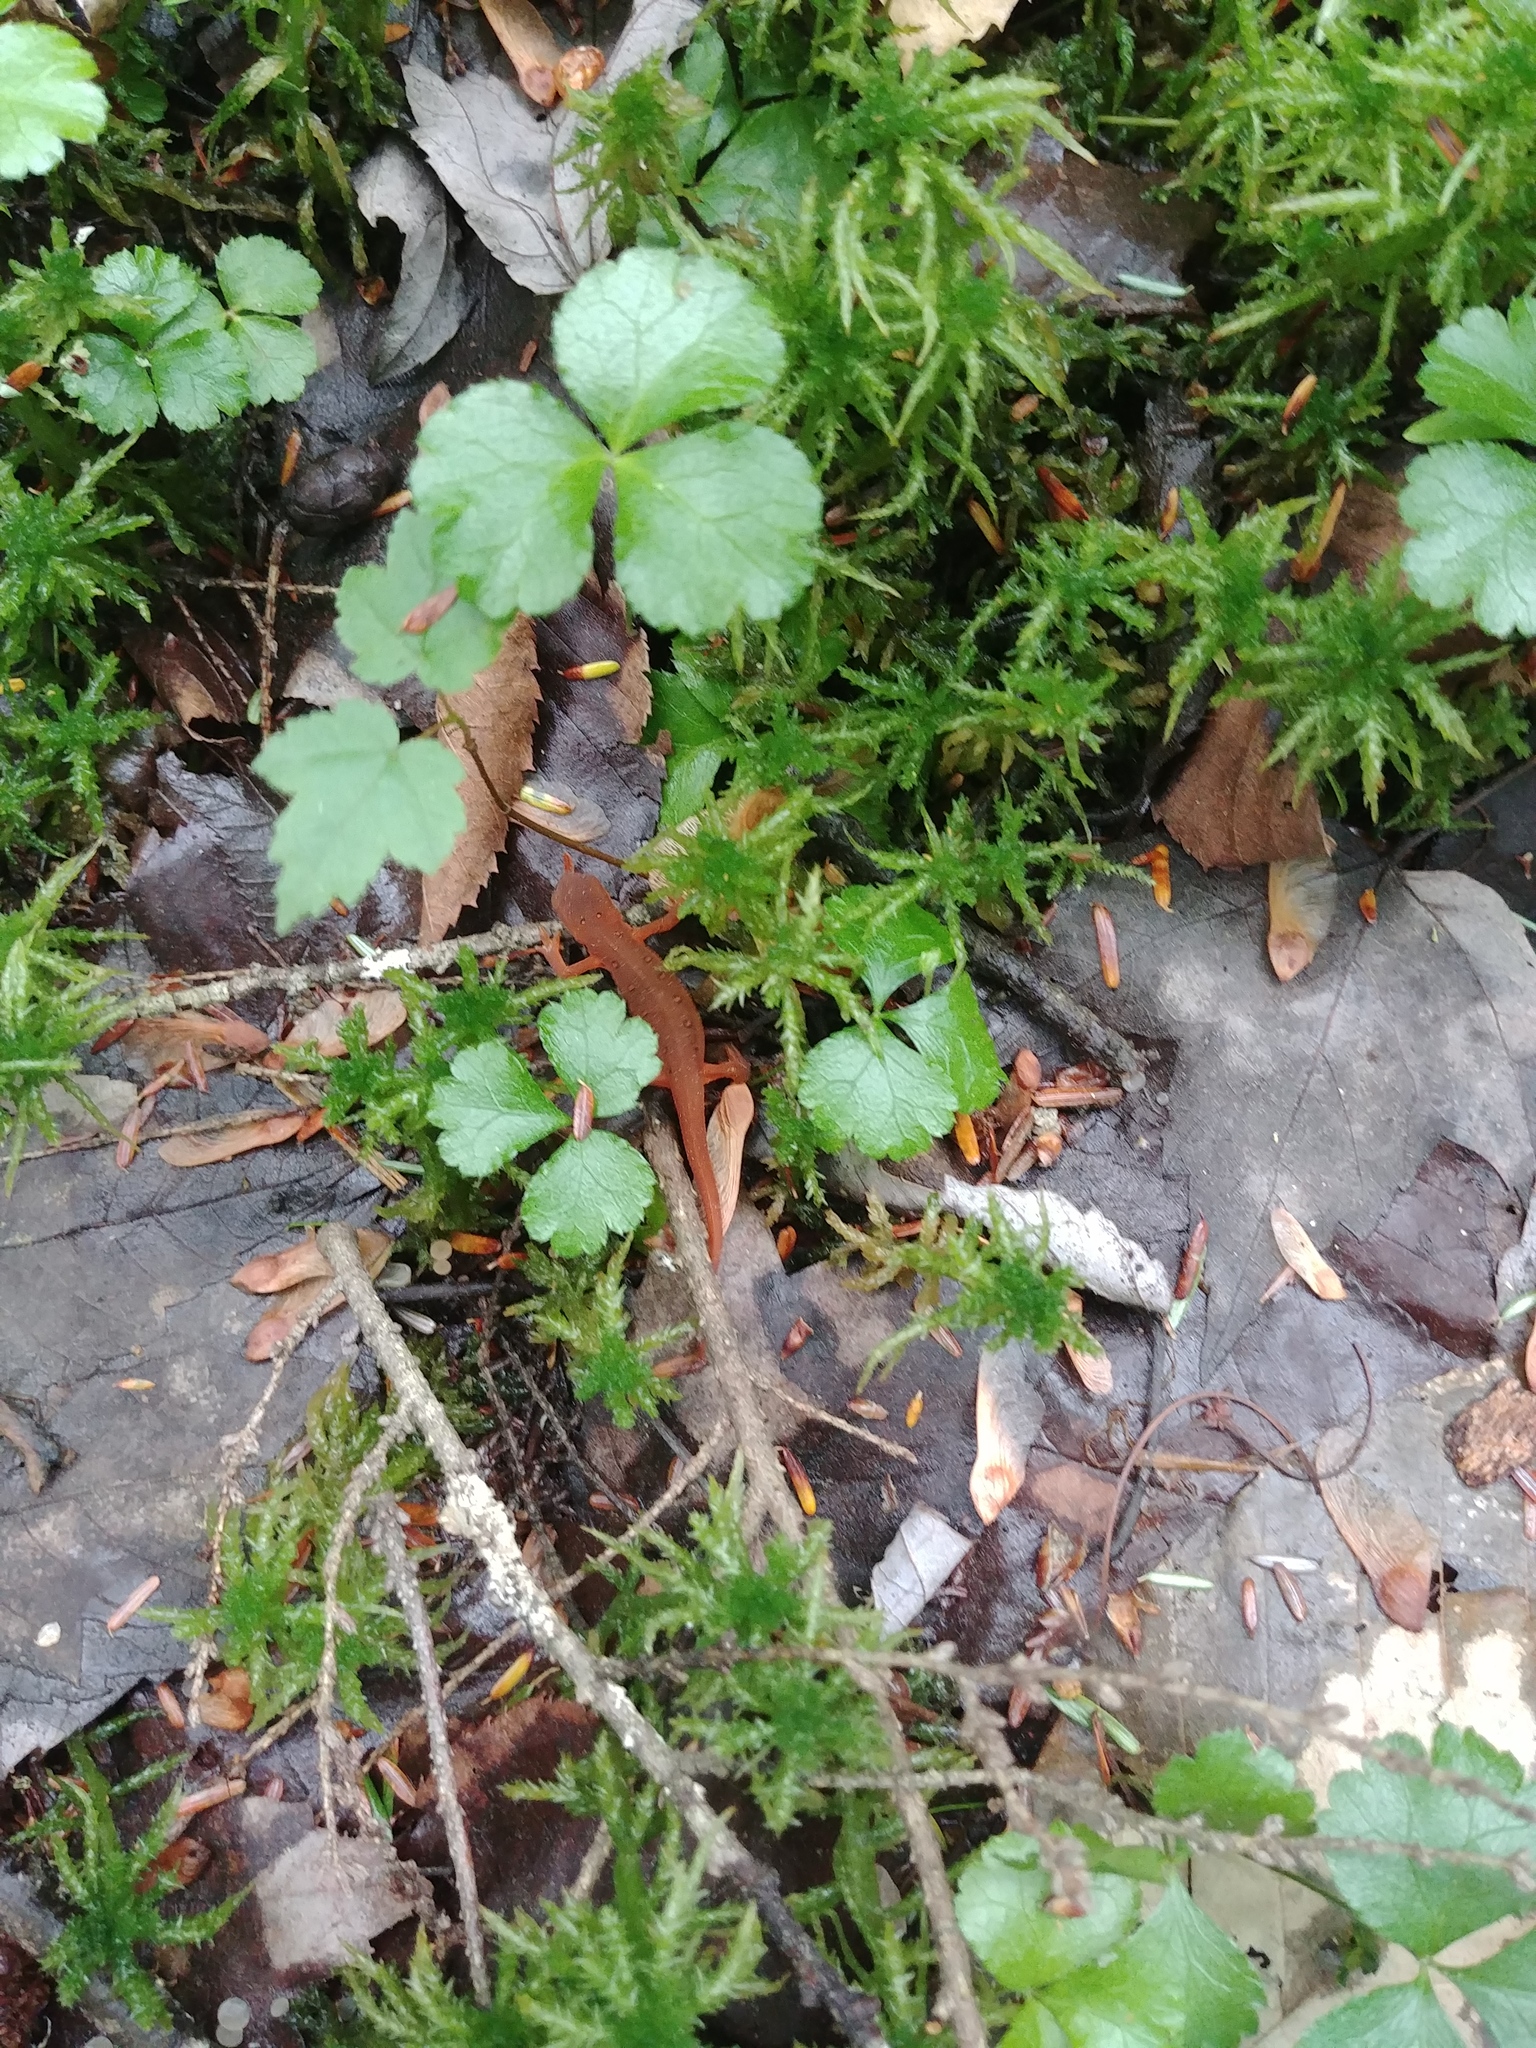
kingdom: Animalia
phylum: Chordata
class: Amphibia
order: Caudata
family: Salamandridae
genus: Notophthalmus
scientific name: Notophthalmus viridescens
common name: Eastern newt
